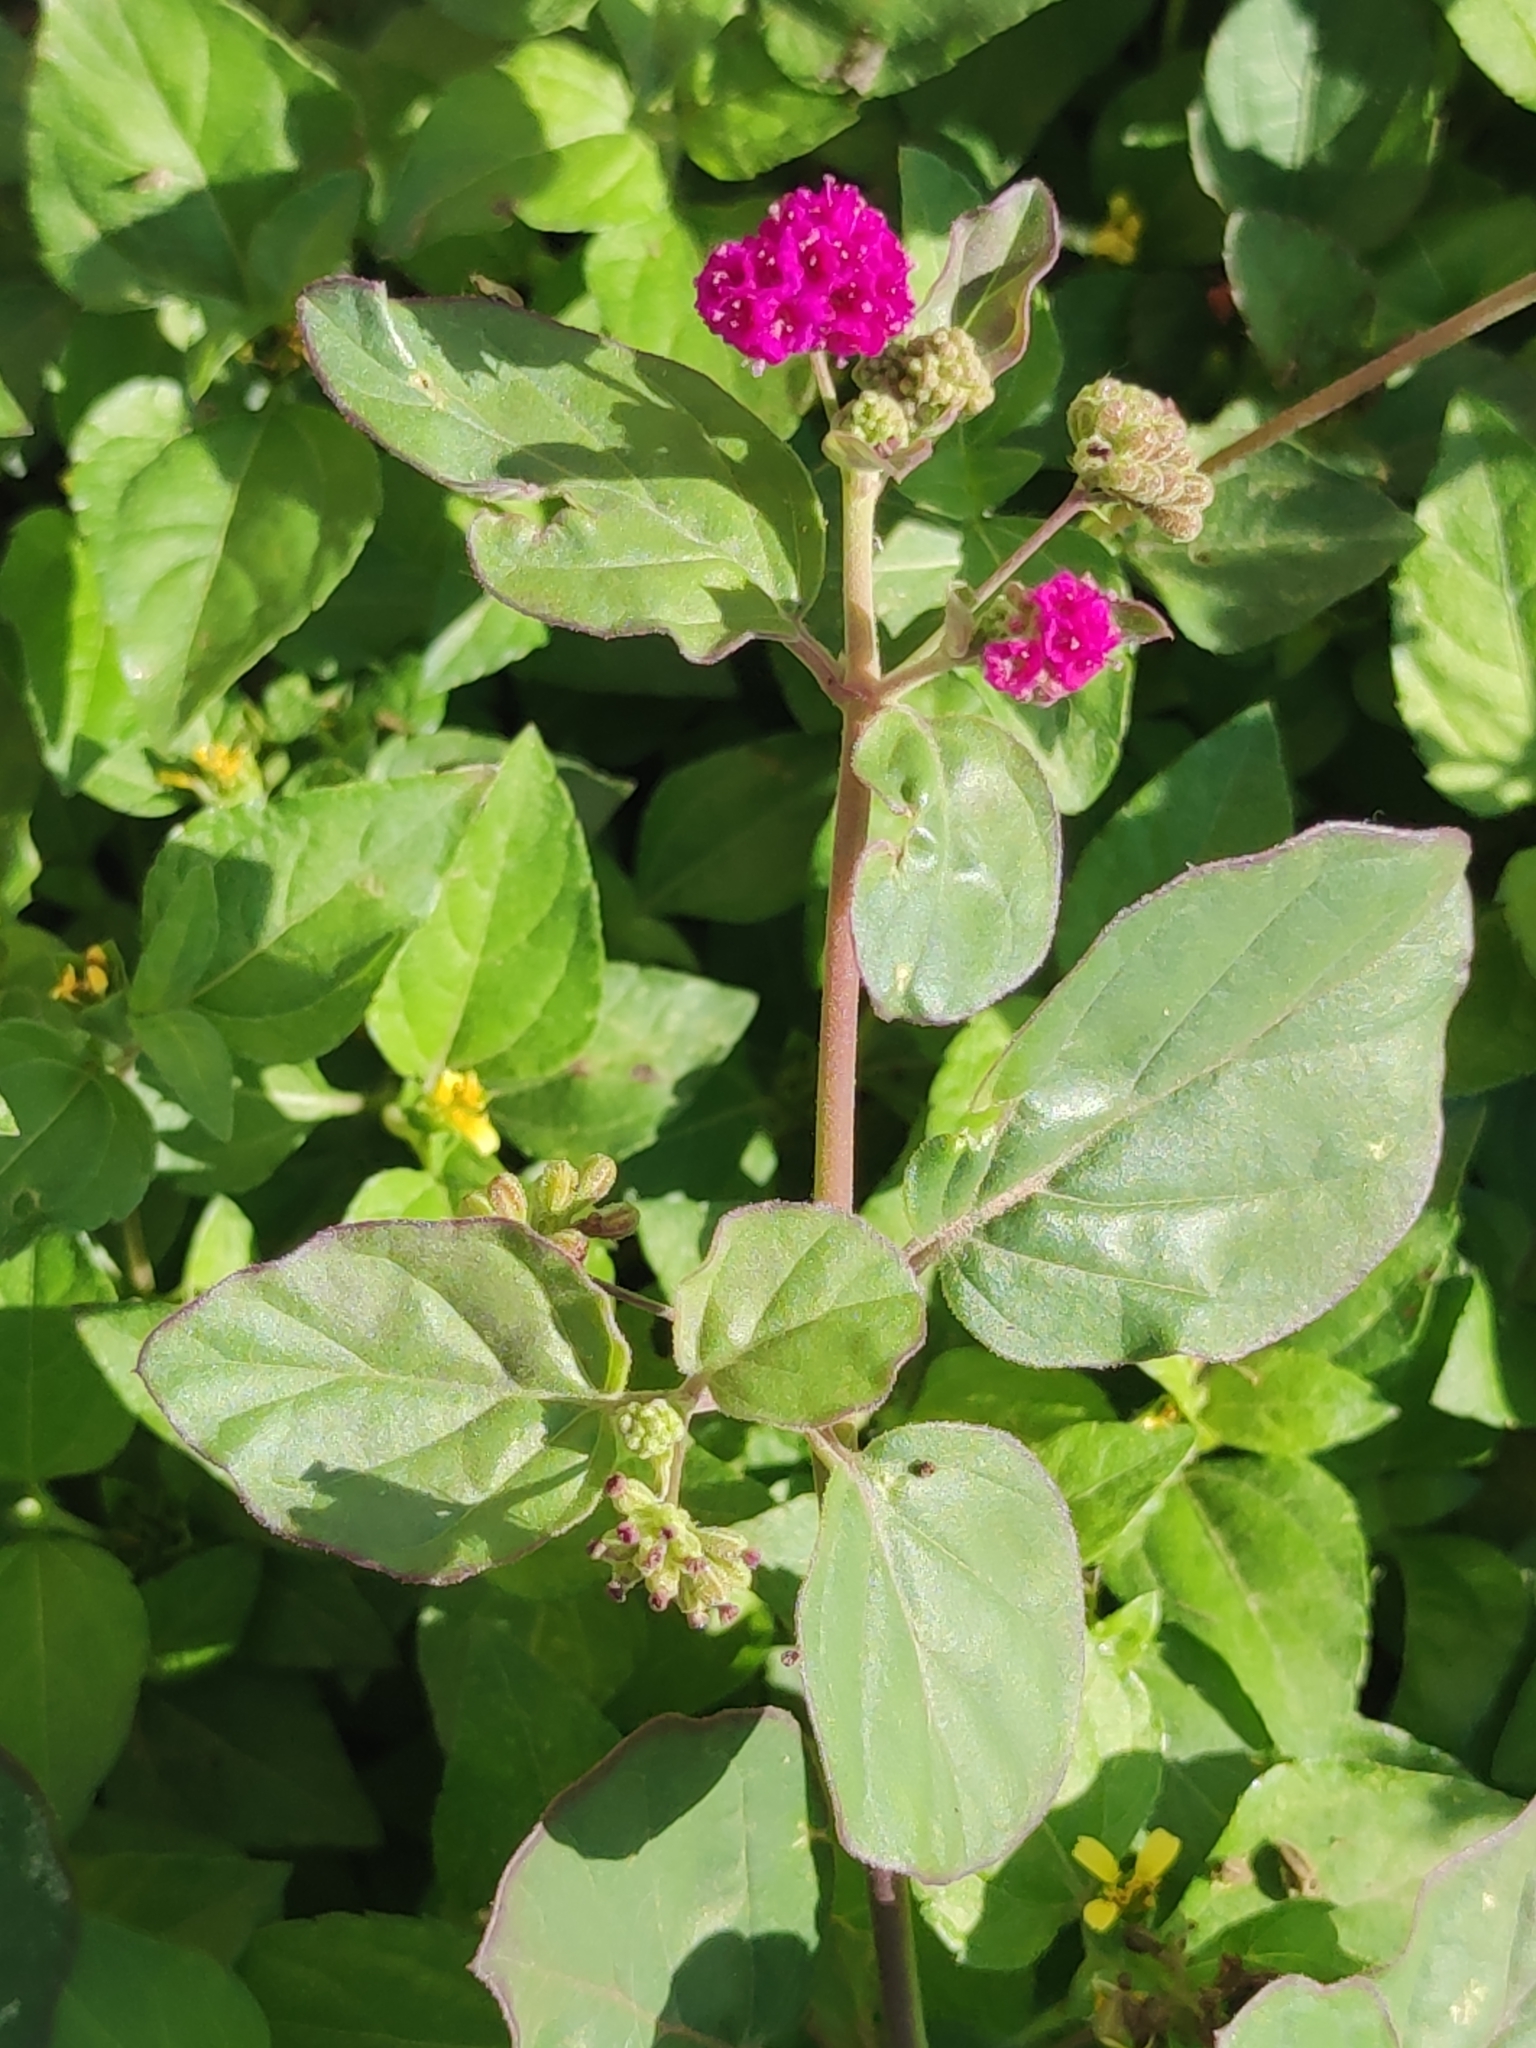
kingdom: Plantae
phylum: Tracheophyta
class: Magnoliopsida
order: Caryophyllales
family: Nyctaginaceae
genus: Boerhavia
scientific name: Boerhavia coccinea
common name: Scarlet spiderling
